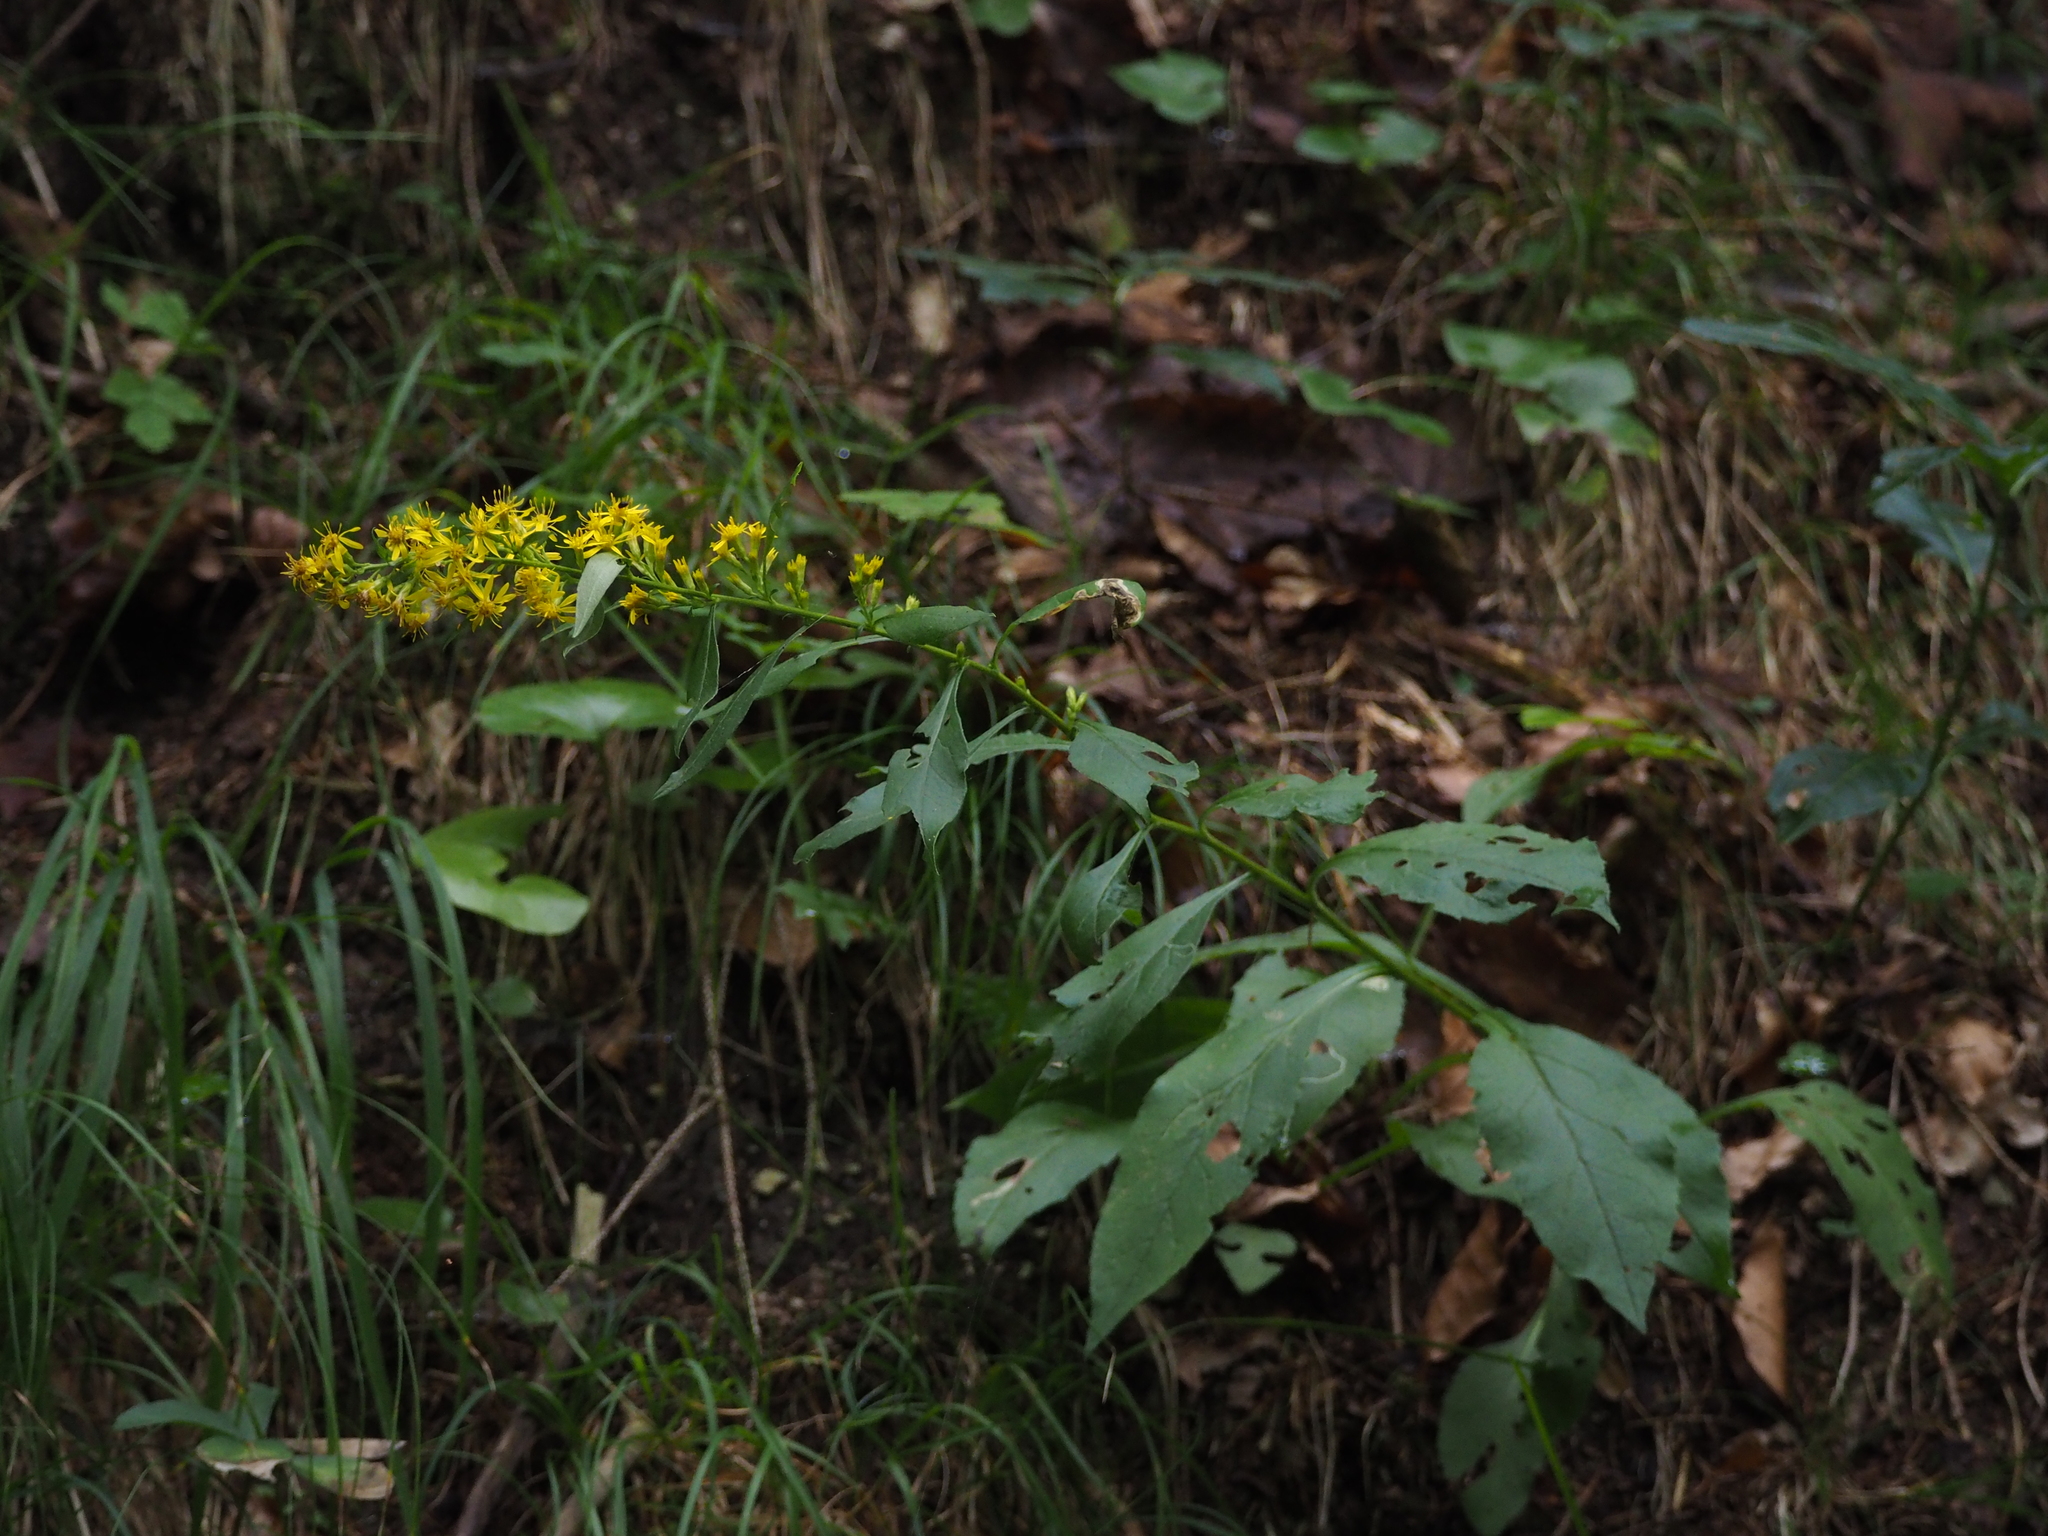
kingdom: Plantae
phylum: Tracheophyta
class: Magnoliopsida
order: Asterales
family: Asteraceae
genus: Solidago
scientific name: Solidago virgaurea
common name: Goldenrod
